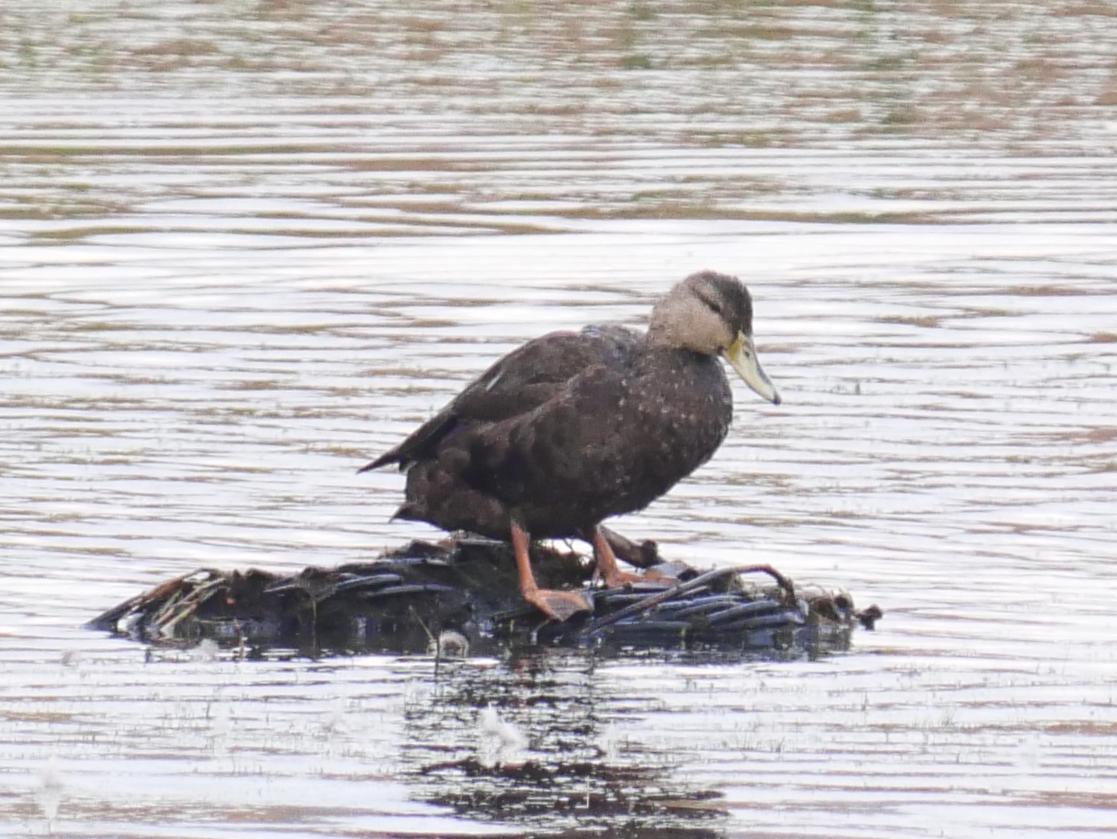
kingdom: Animalia
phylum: Chordata
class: Aves
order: Anseriformes
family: Anatidae
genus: Anas
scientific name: Anas rubripes
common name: American black duck
